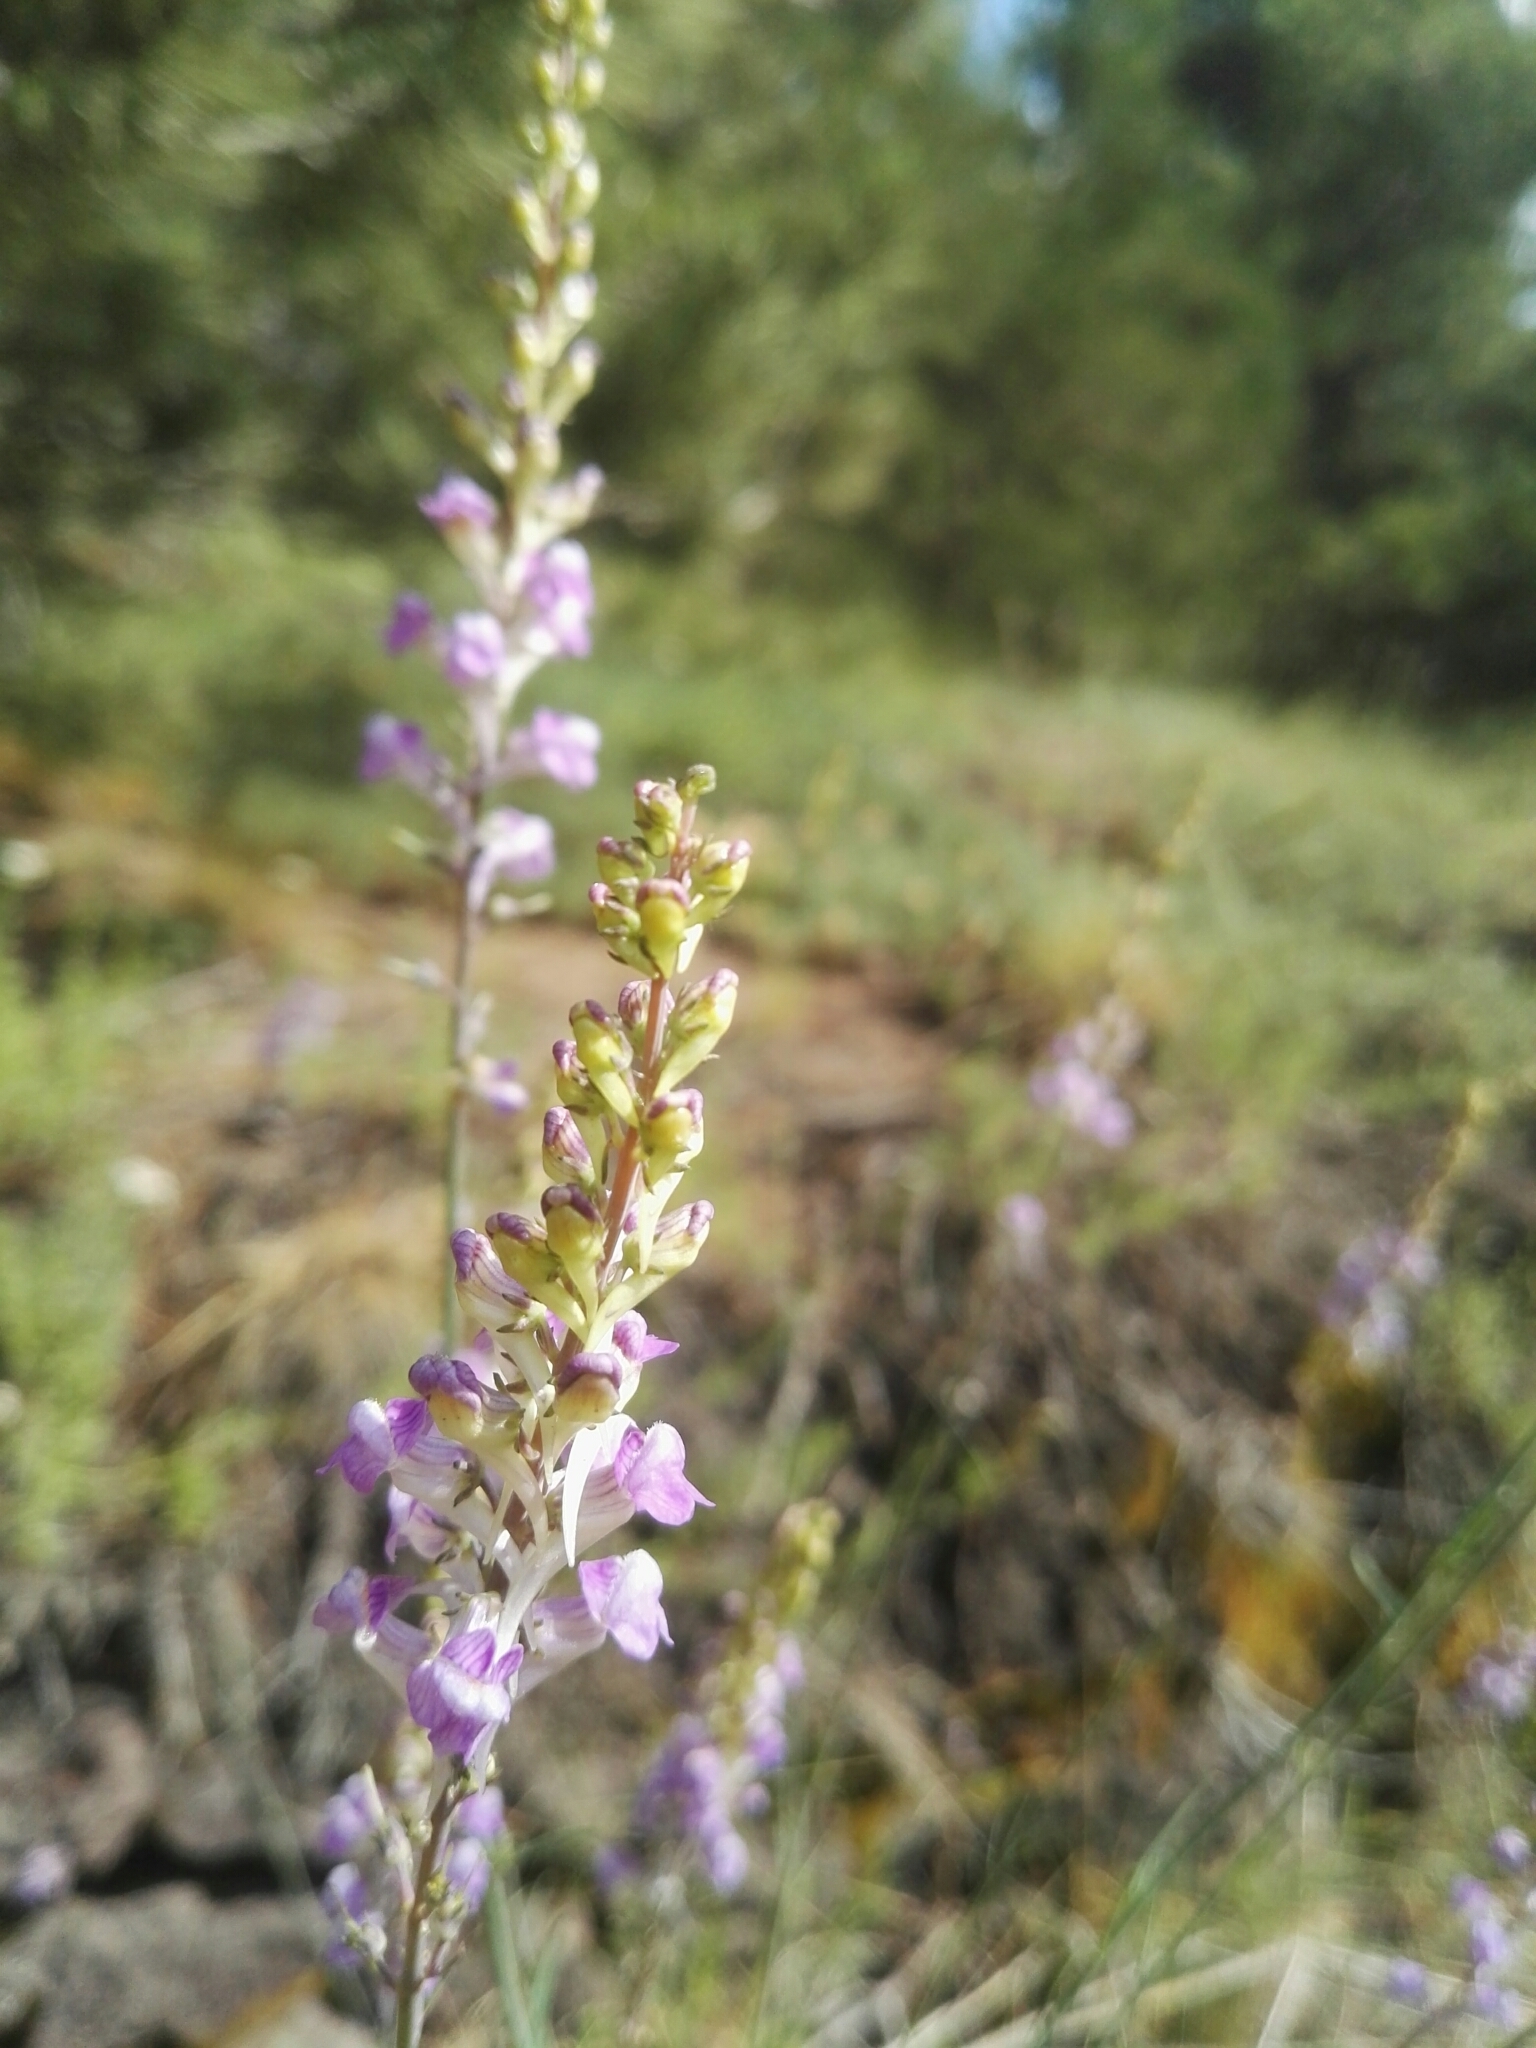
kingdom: Plantae
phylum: Tracheophyta
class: Magnoliopsida
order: Lamiales
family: Plantaginaceae
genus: Linaria
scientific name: Linaria purpurea
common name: Purple toadflax
